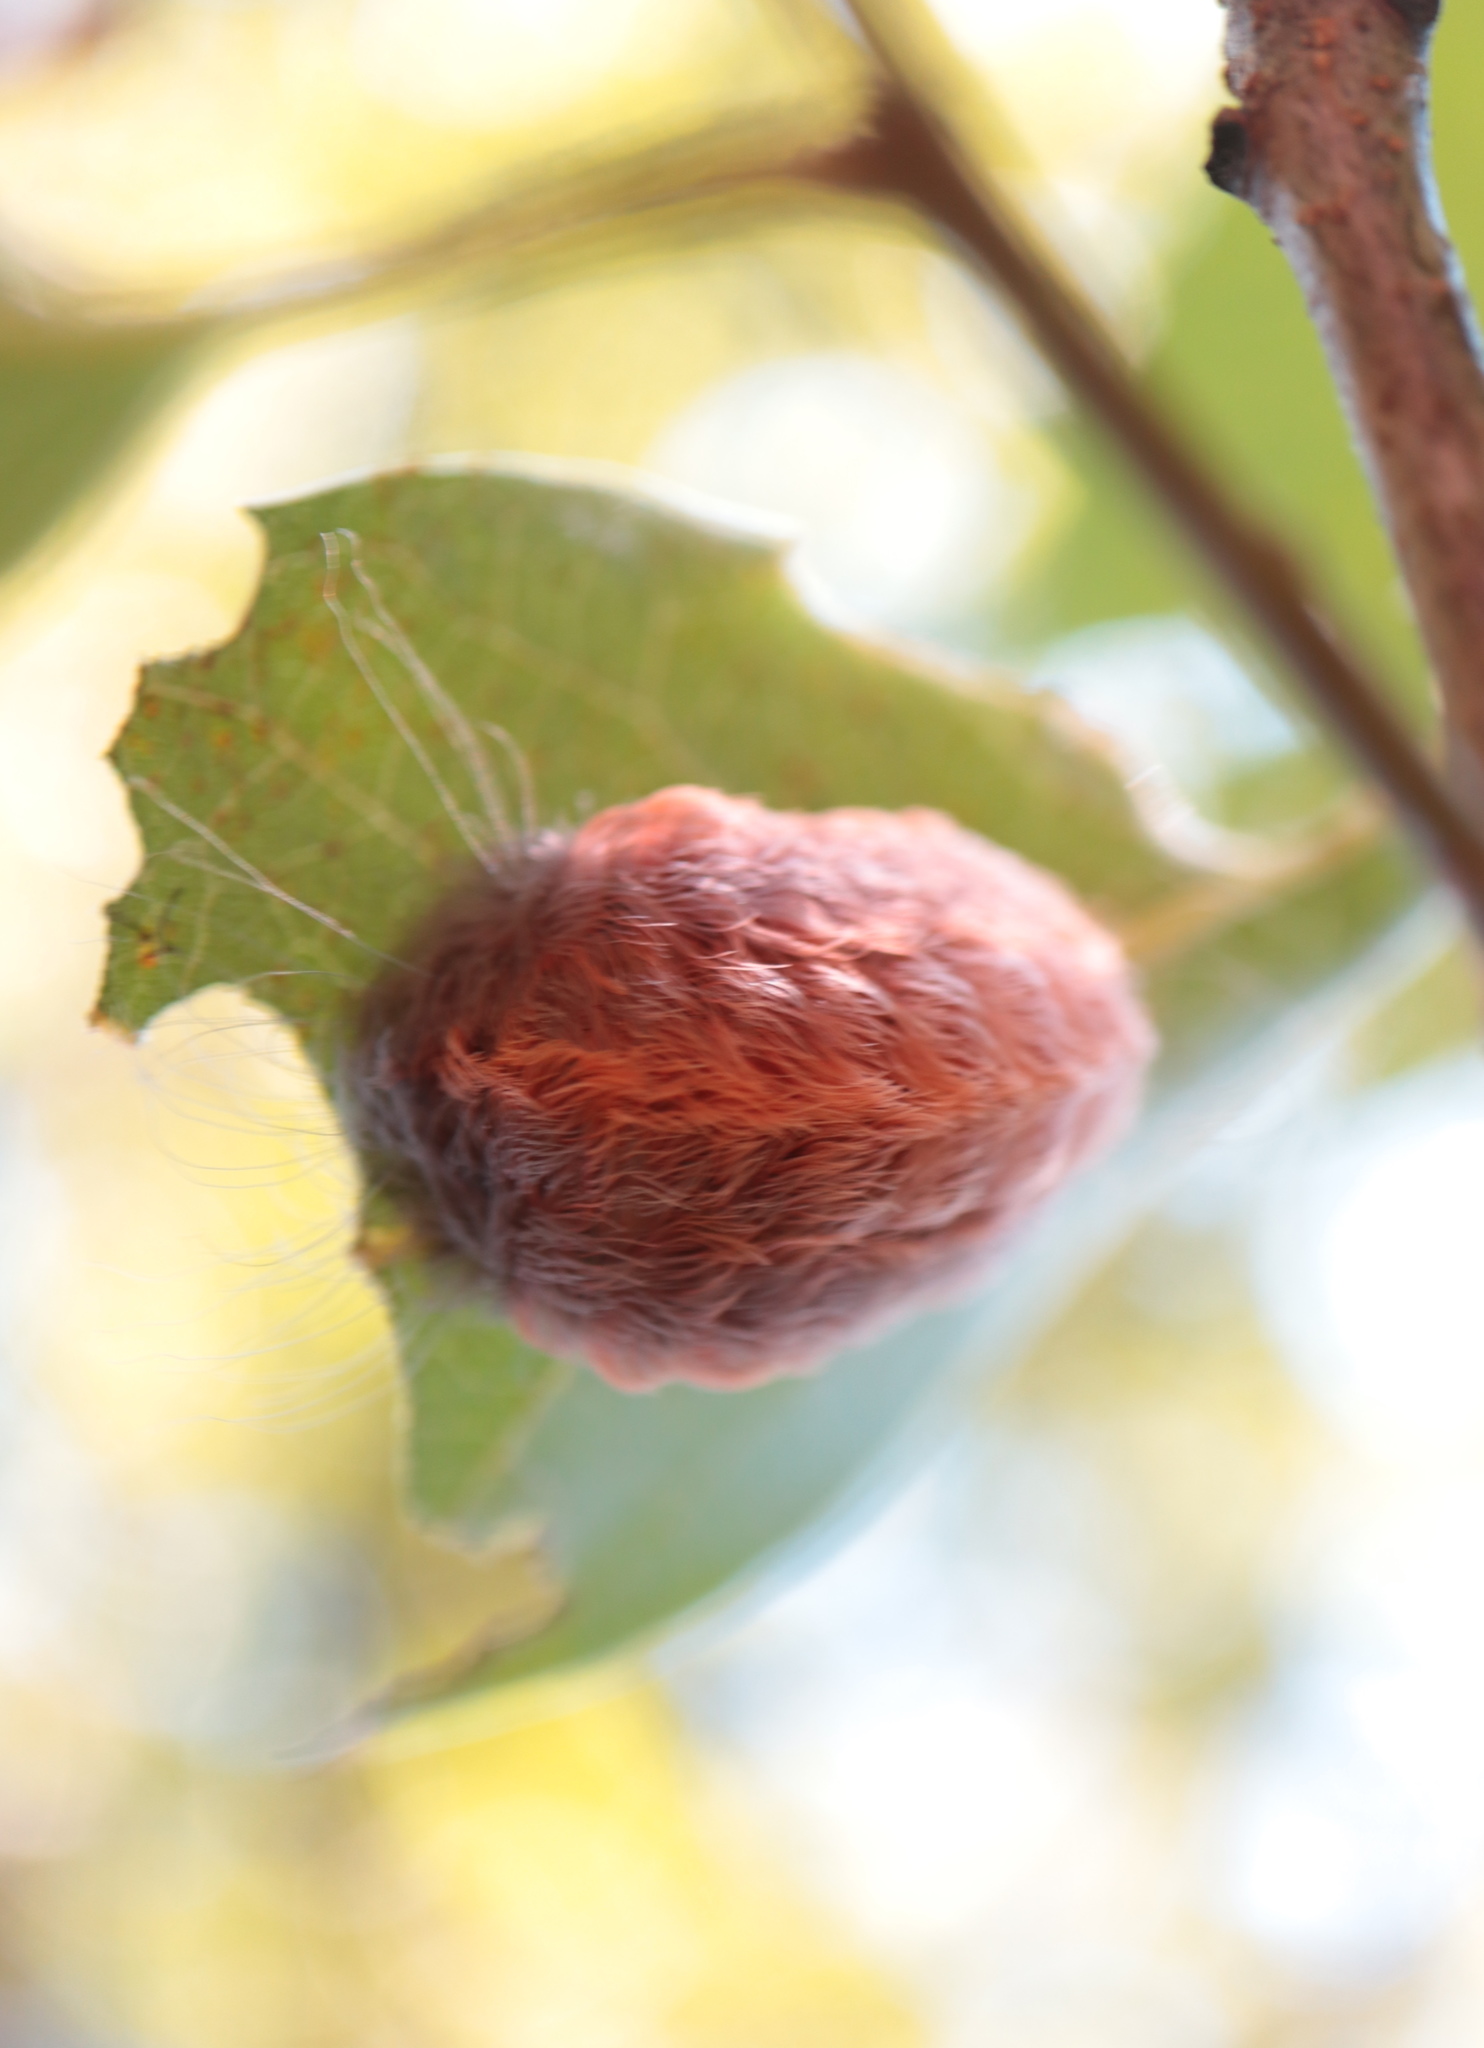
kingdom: Animalia
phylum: Arthropoda
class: Insecta
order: Lepidoptera
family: Megalopygidae
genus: Megalopyge
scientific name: Megalopyge crispata
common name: Black-waved flannel moth
